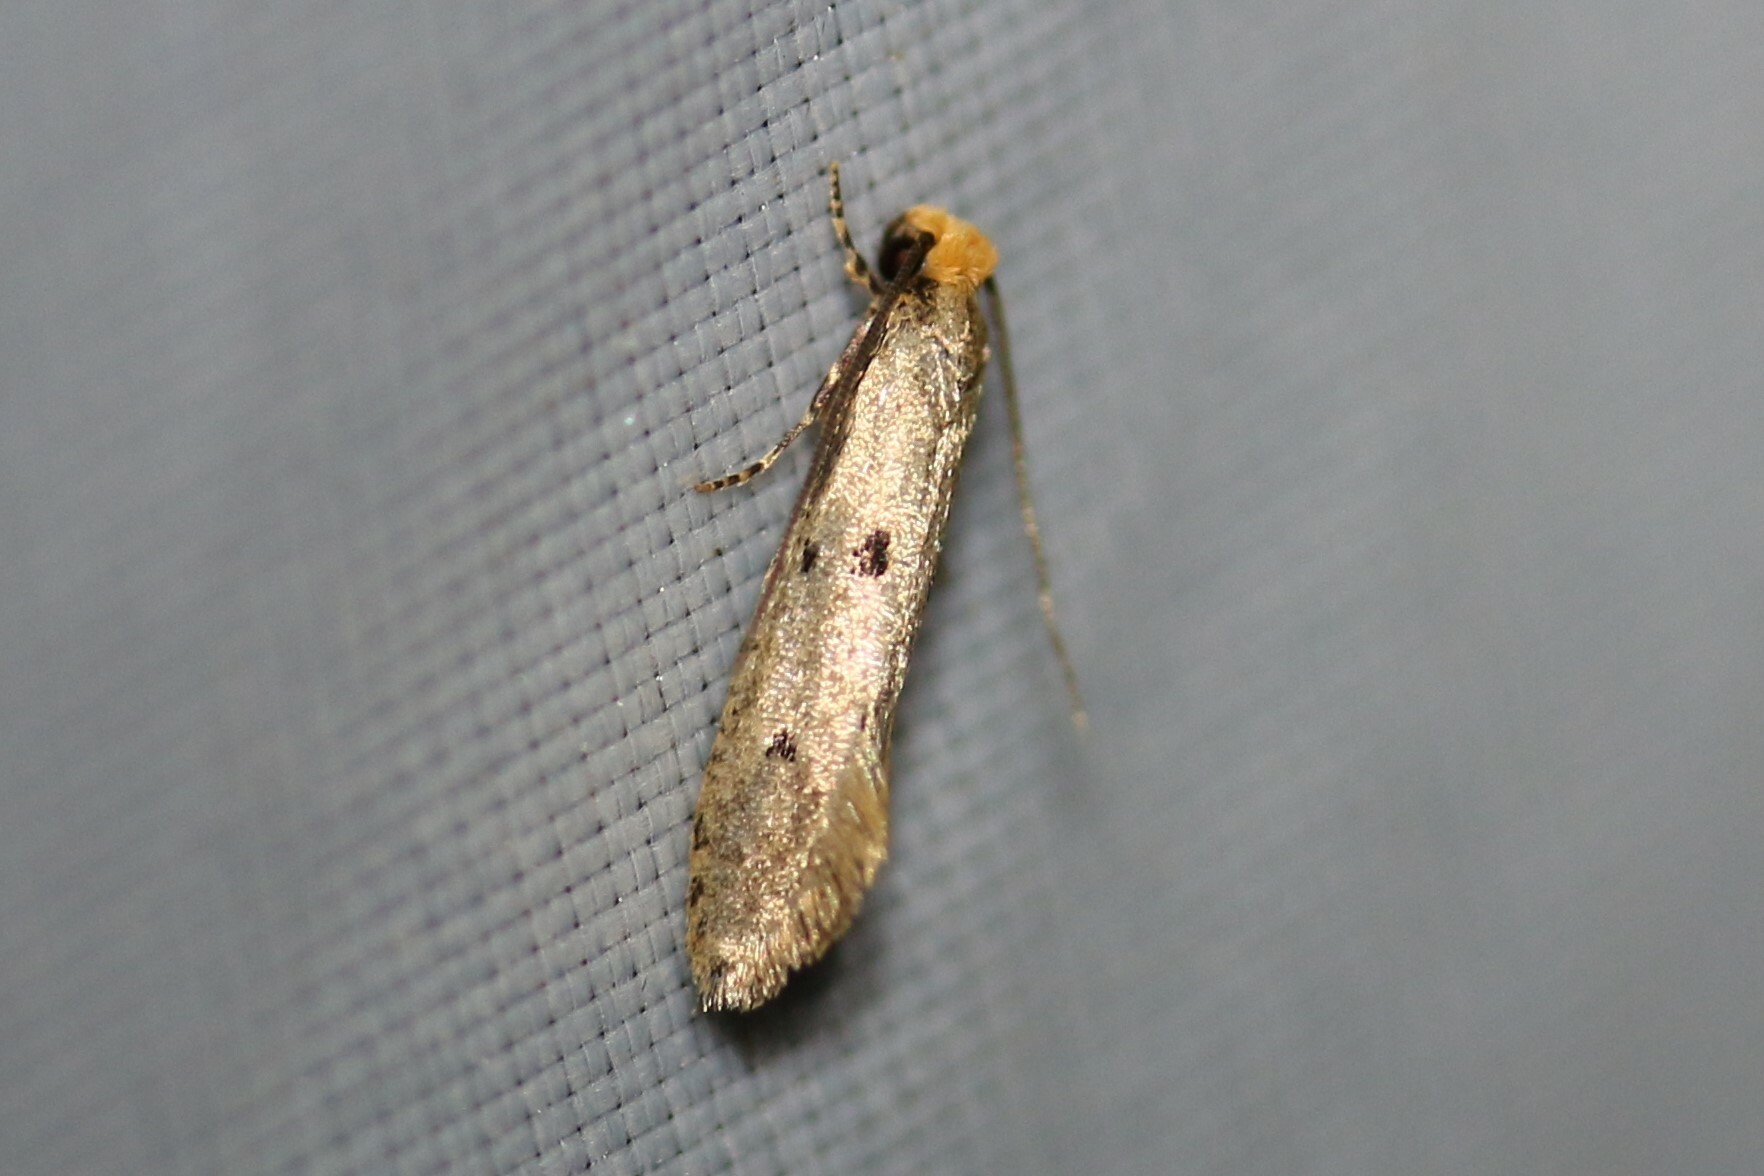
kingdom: Animalia
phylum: Arthropoda
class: Insecta
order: Lepidoptera
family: Tineidae
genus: Tinea
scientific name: Tinea trinotella
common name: Bird's-nest moth
